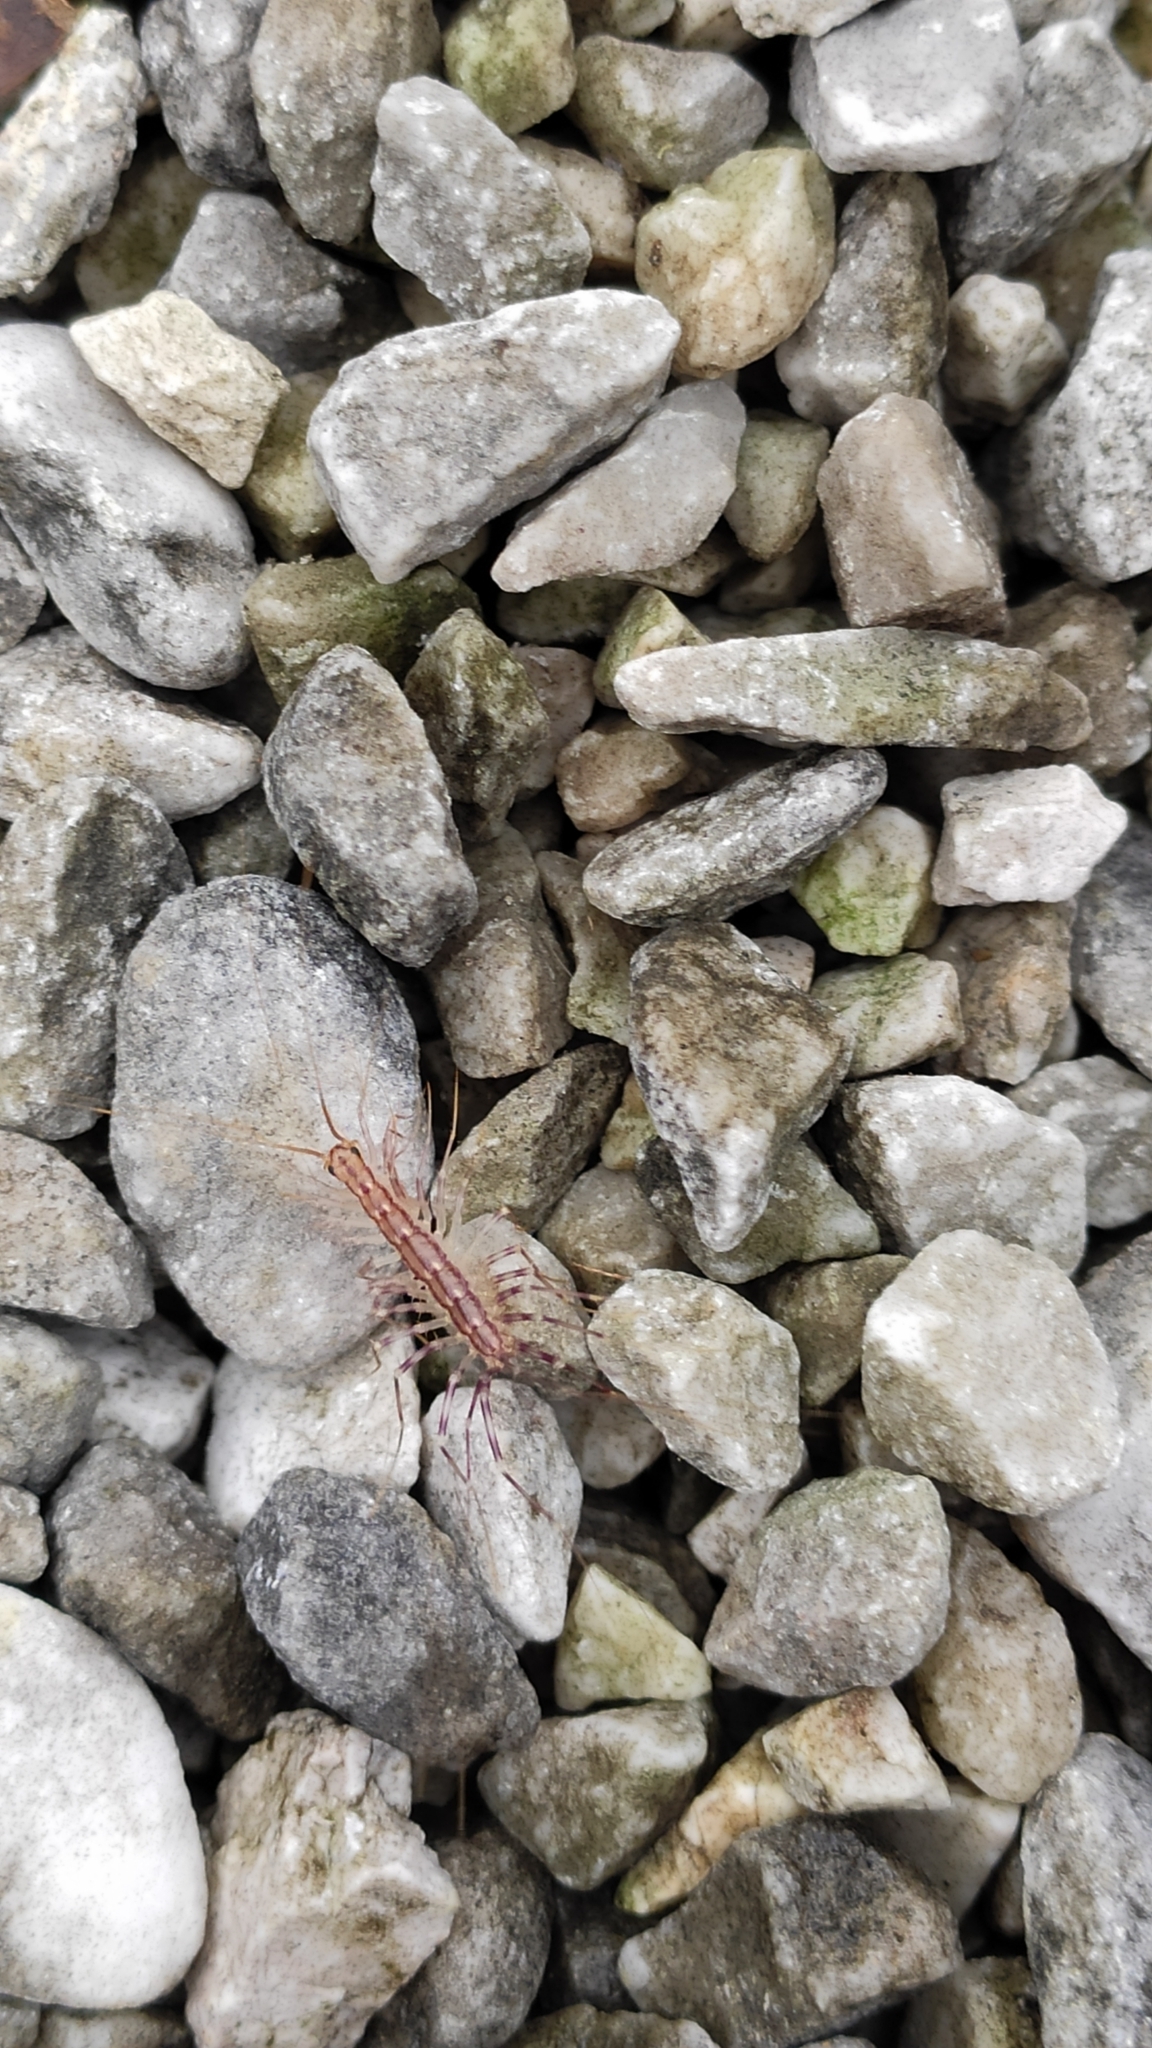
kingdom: Animalia
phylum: Arthropoda
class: Chilopoda
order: Scutigeromorpha
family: Scutigeridae
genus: Scutigera
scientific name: Scutigera coleoptrata
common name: House centipede
